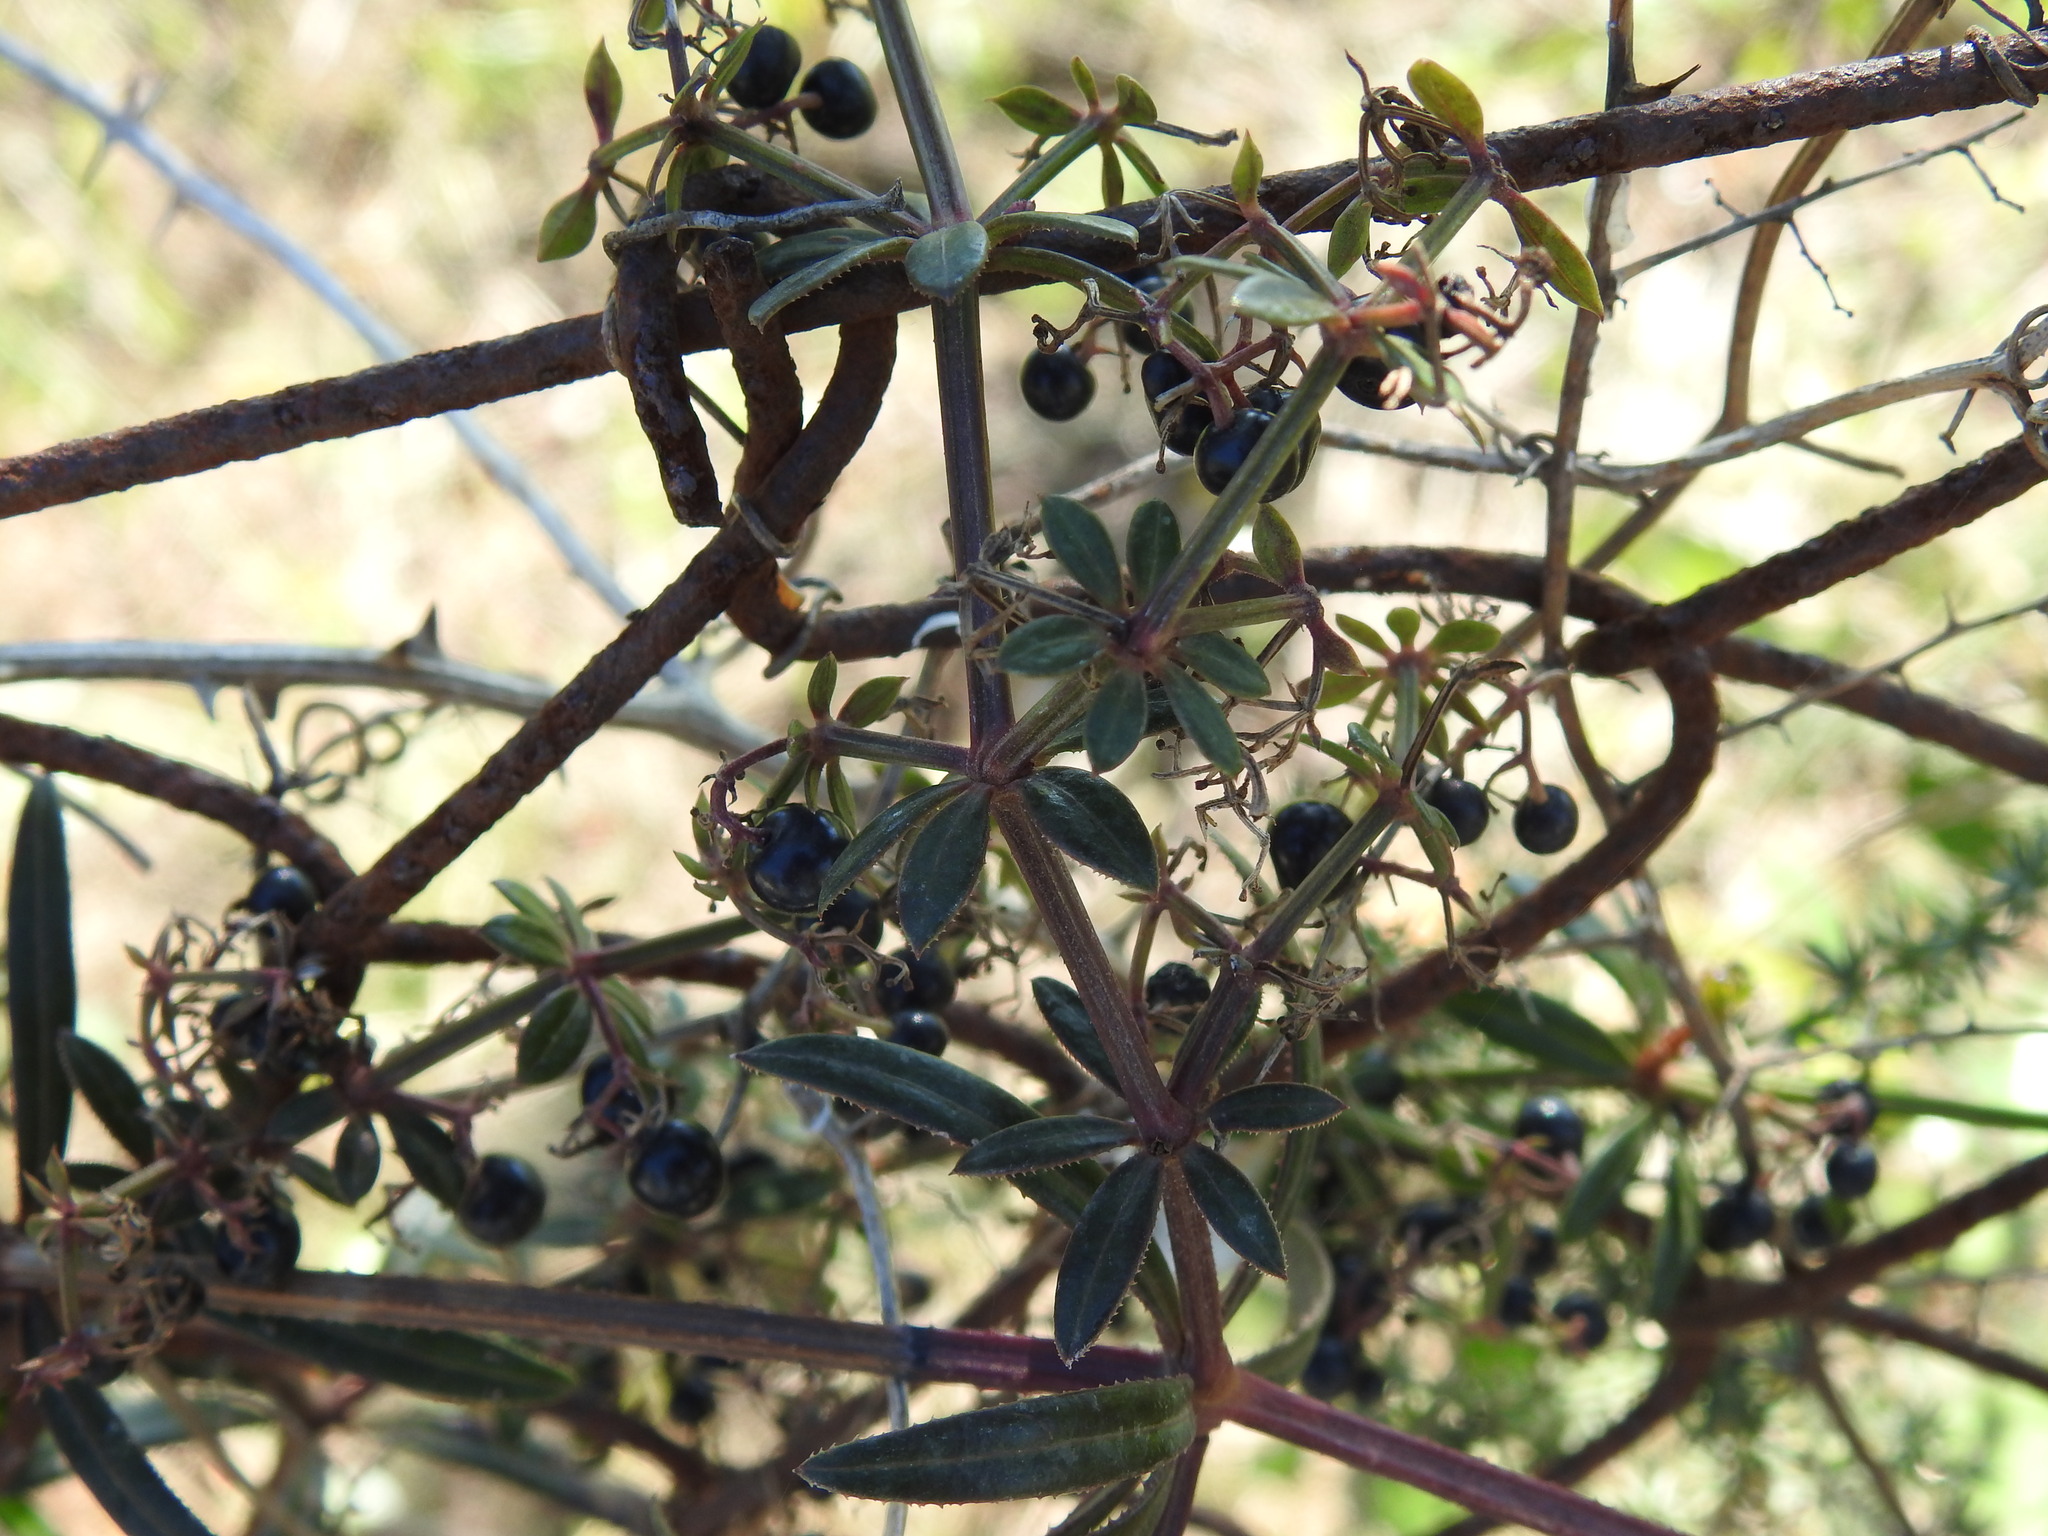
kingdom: Plantae
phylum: Tracheophyta
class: Magnoliopsida
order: Gentianales
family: Rubiaceae
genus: Rubia
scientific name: Rubia peregrina
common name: Wild madder
